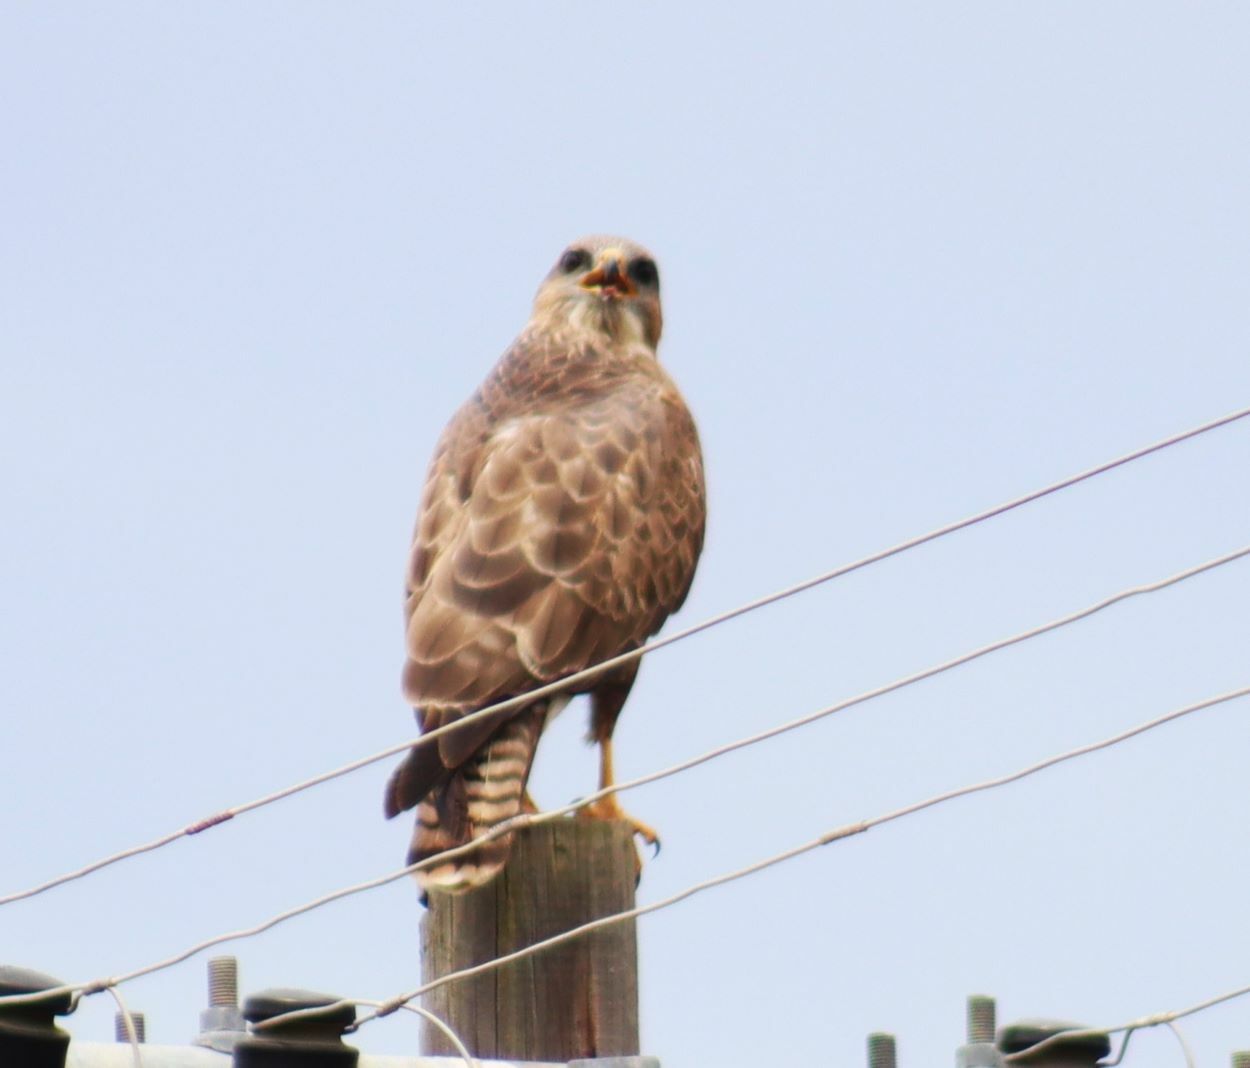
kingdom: Animalia
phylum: Chordata
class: Aves
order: Accipitriformes
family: Accipitridae
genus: Buteo
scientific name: Buteo buteo
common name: Common buzzard
